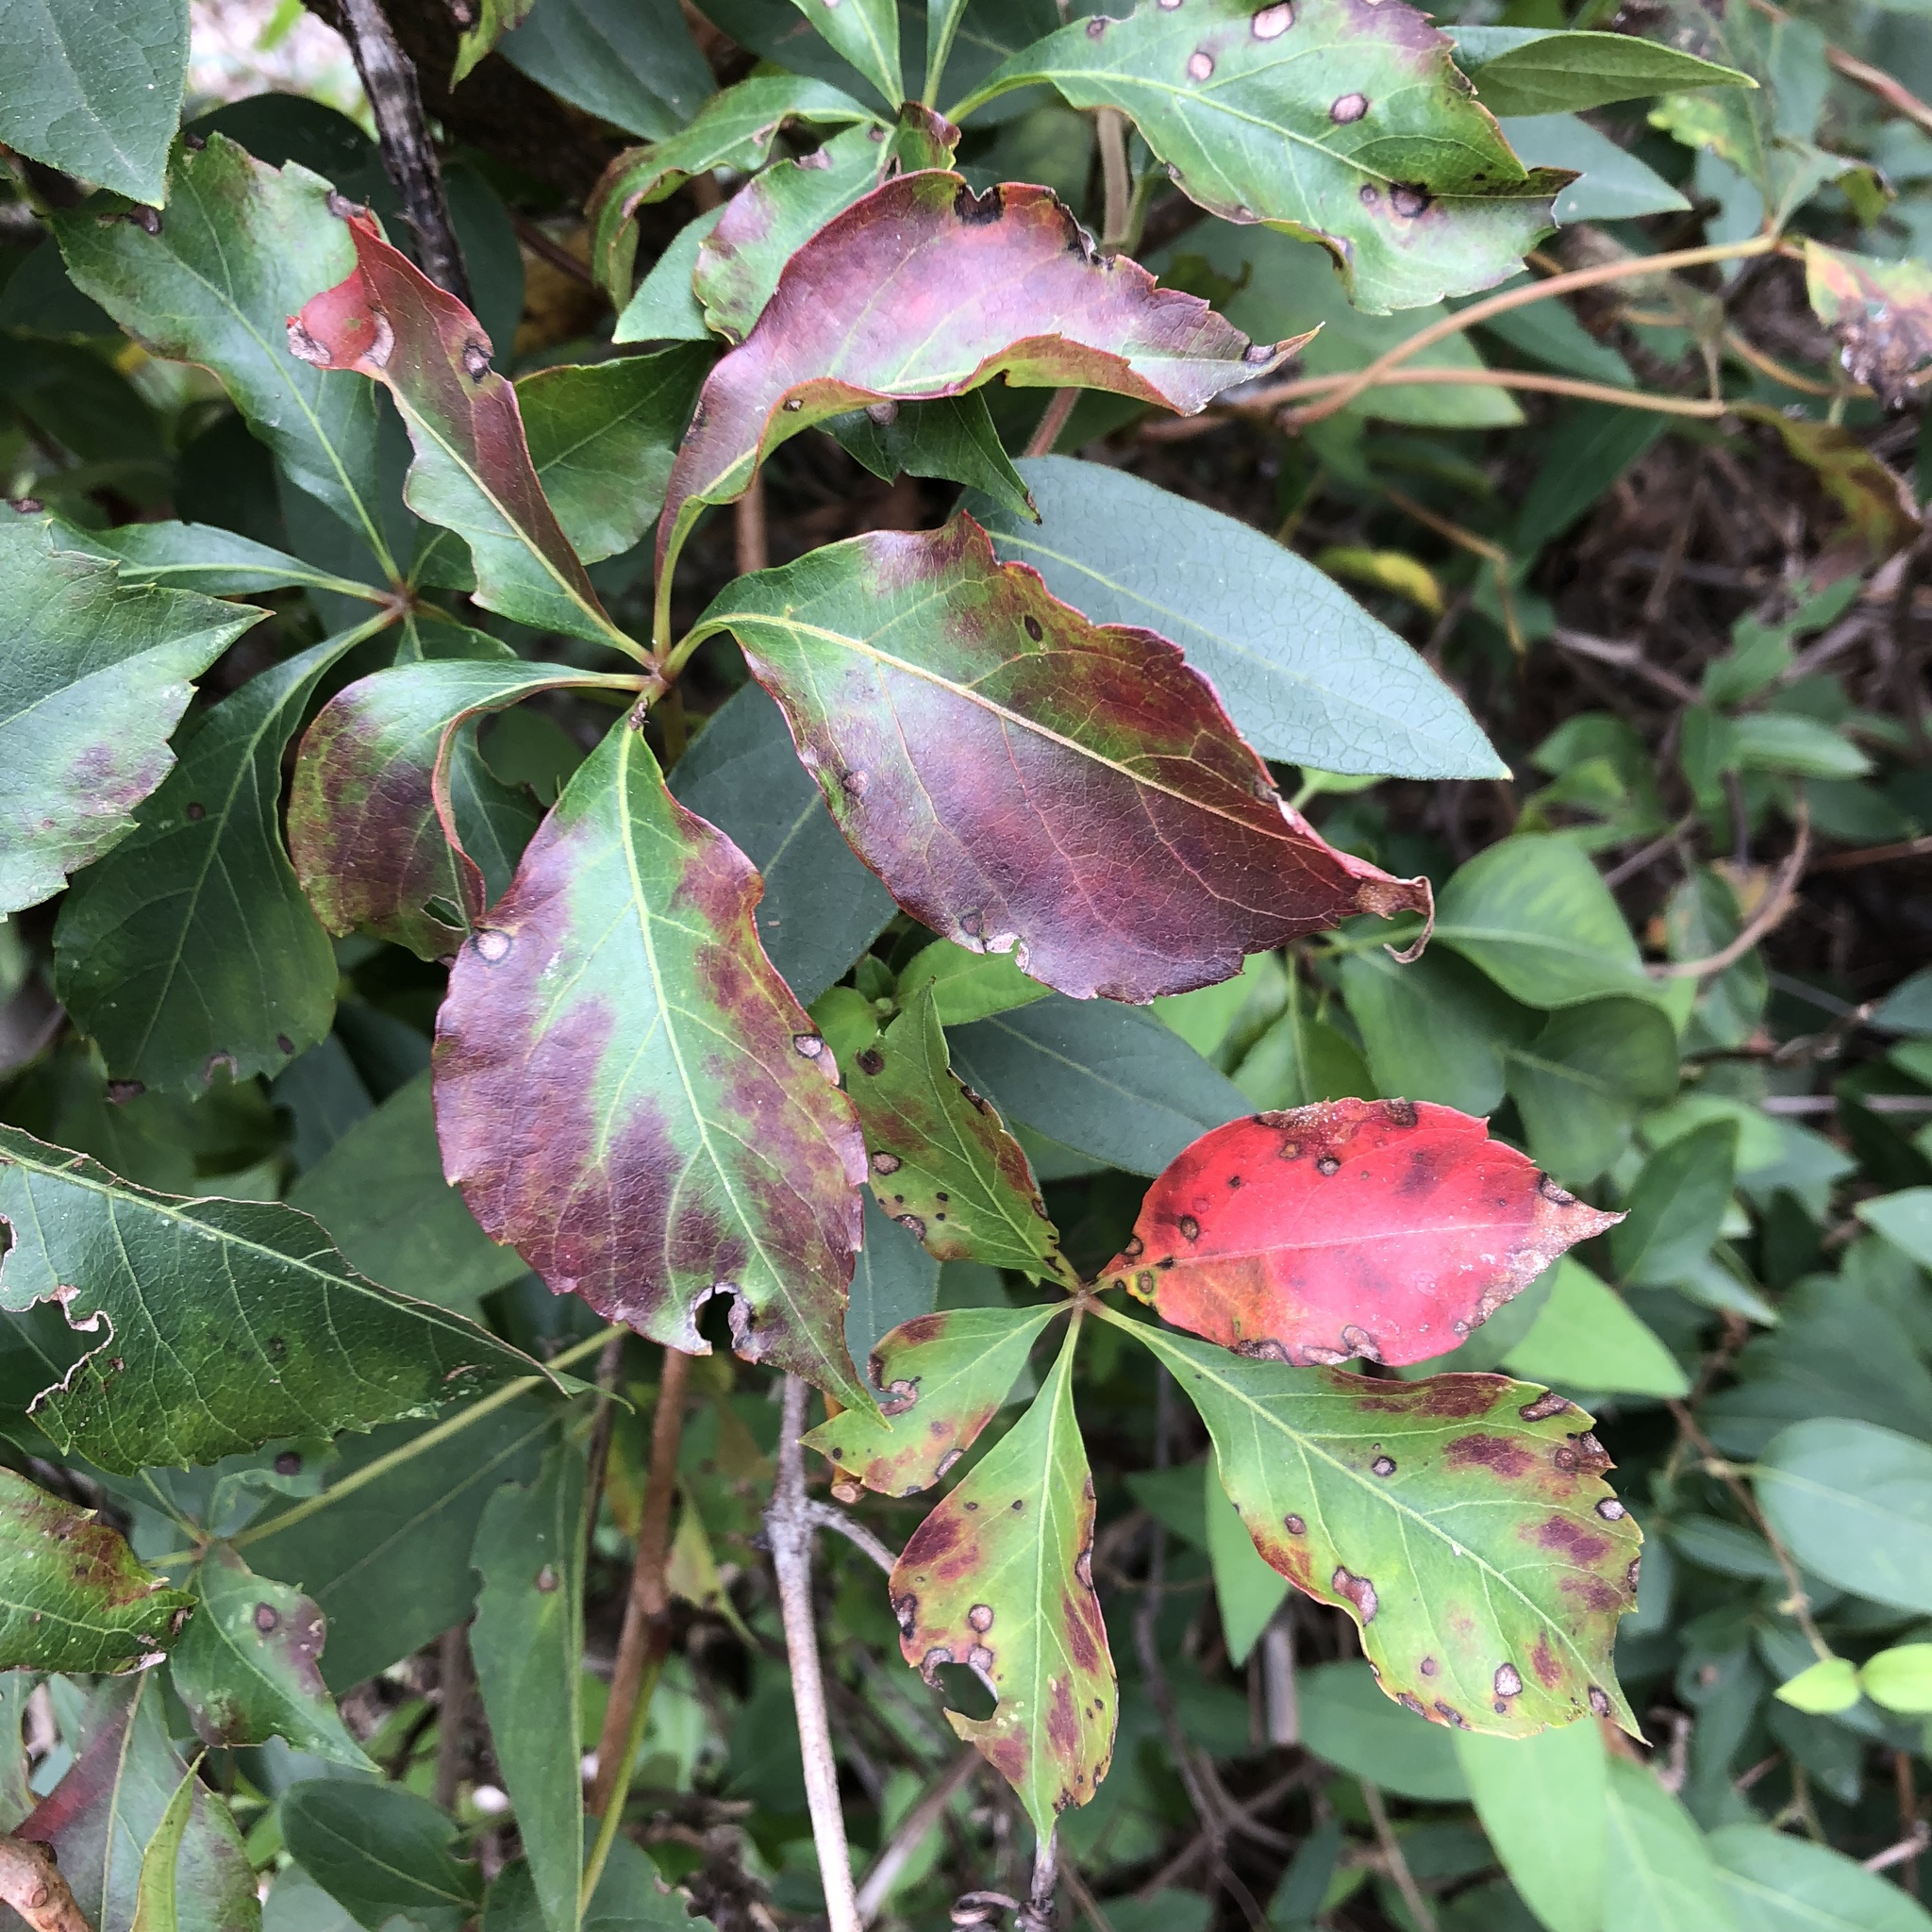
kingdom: Plantae
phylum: Tracheophyta
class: Magnoliopsida
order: Vitales
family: Vitaceae
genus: Parthenocissus
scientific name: Parthenocissus quinquefolia
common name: Virginia-creeper
